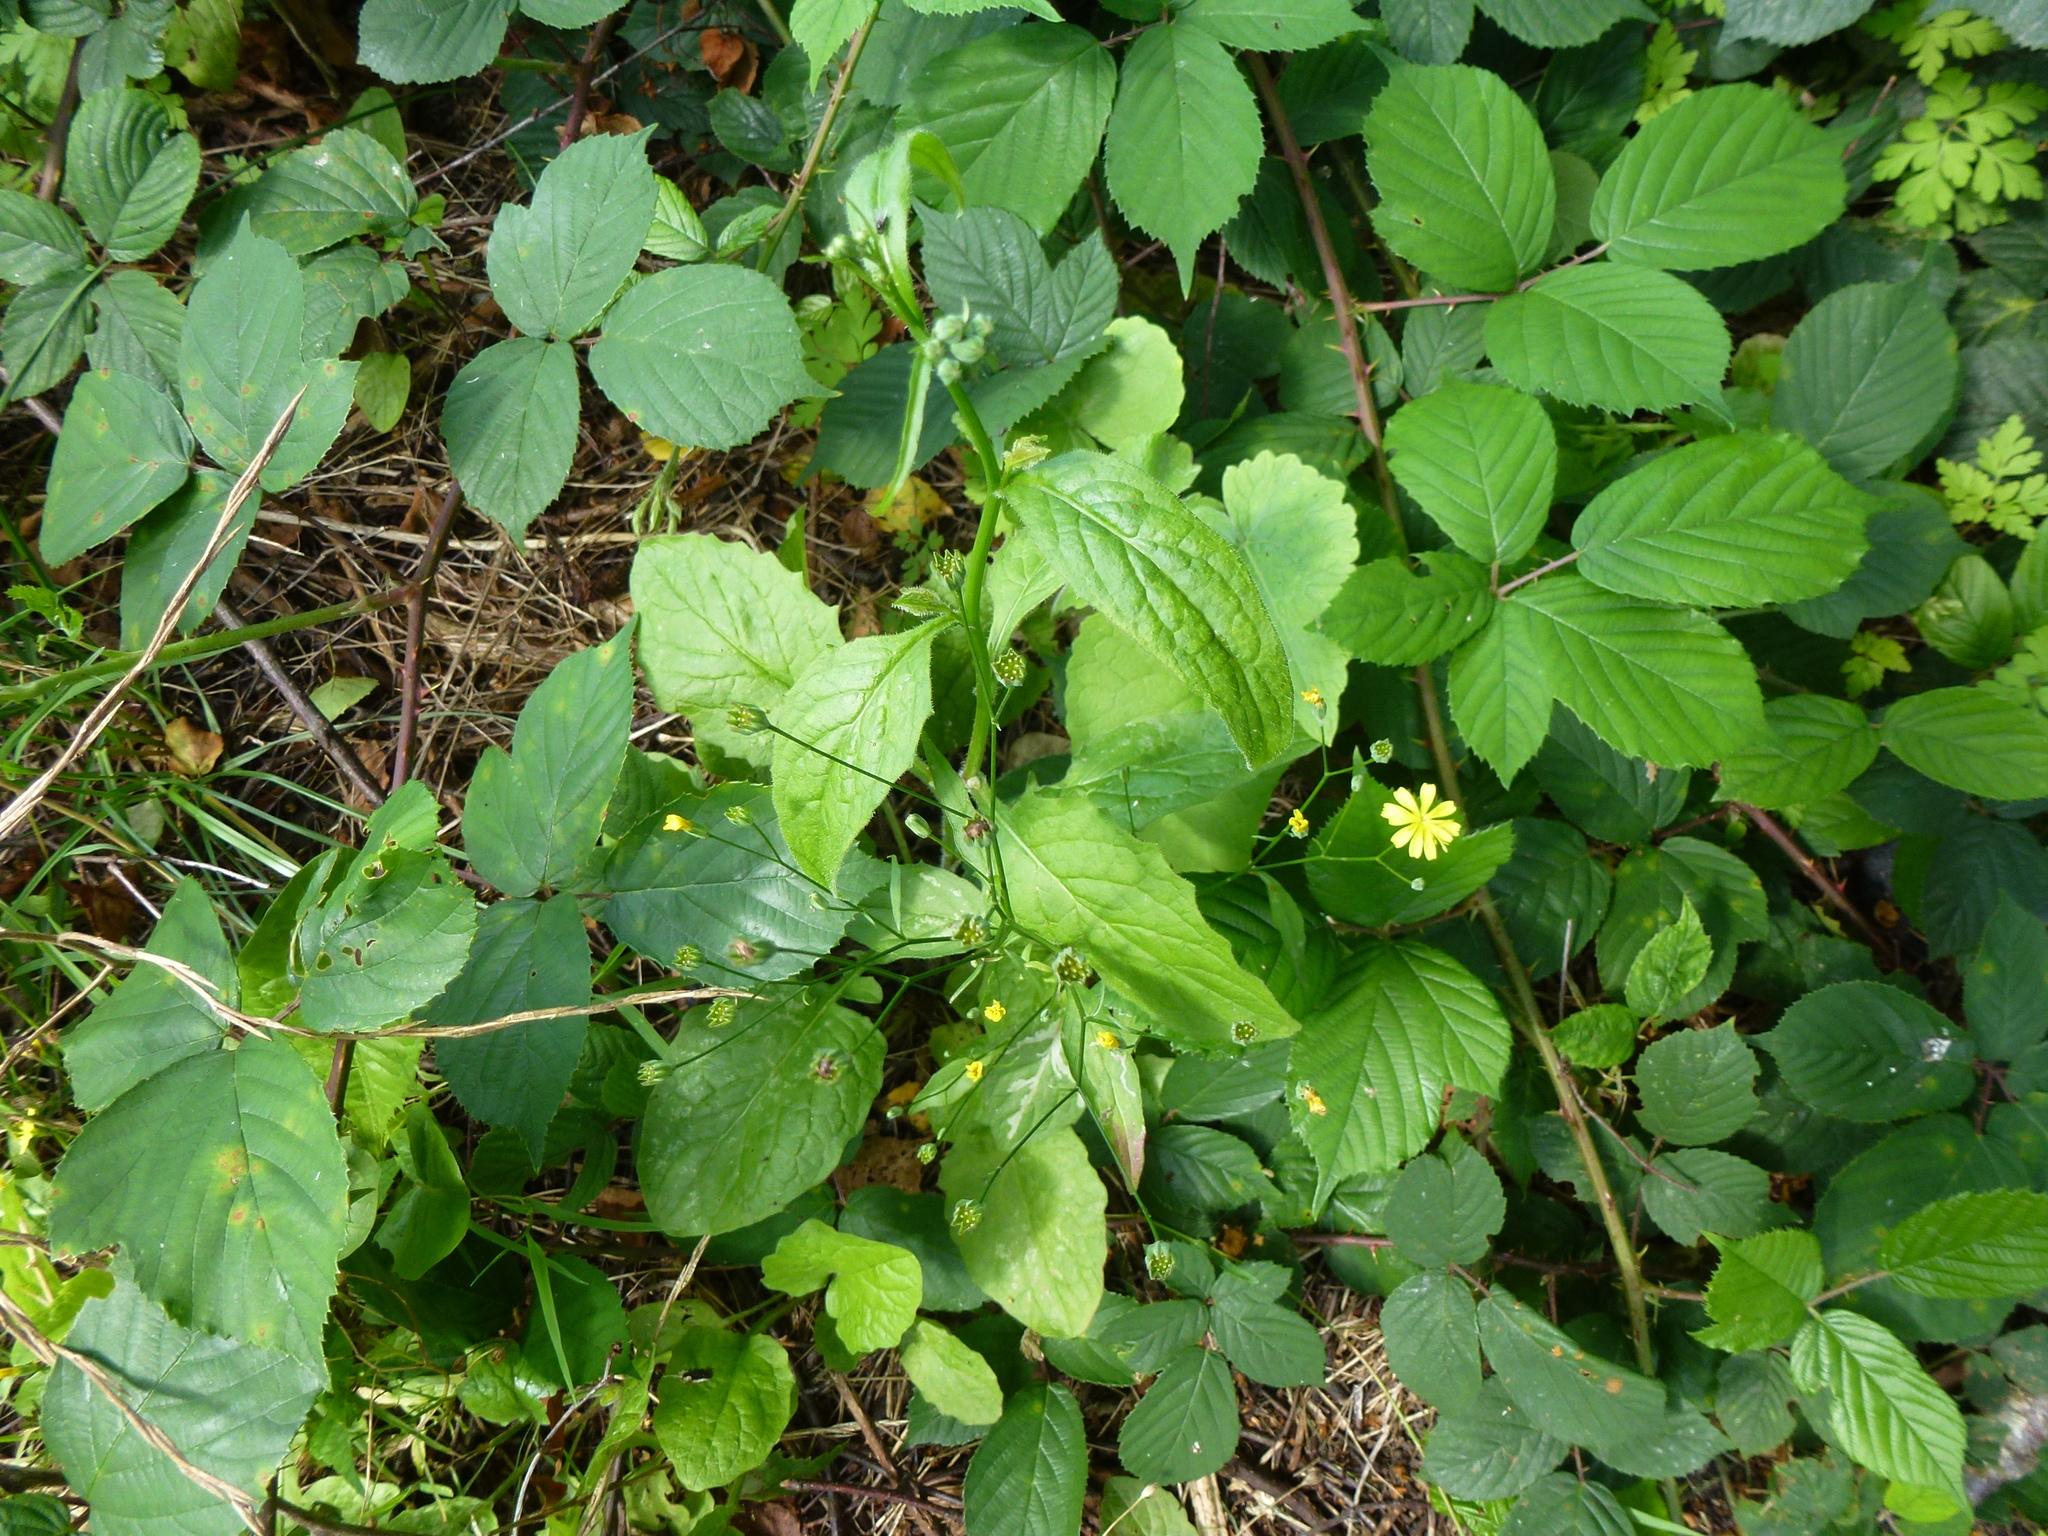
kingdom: Plantae
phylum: Tracheophyta
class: Magnoliopsida
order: Rosales
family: Rosaceae
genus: Rubus
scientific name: Rubus wirralensis
